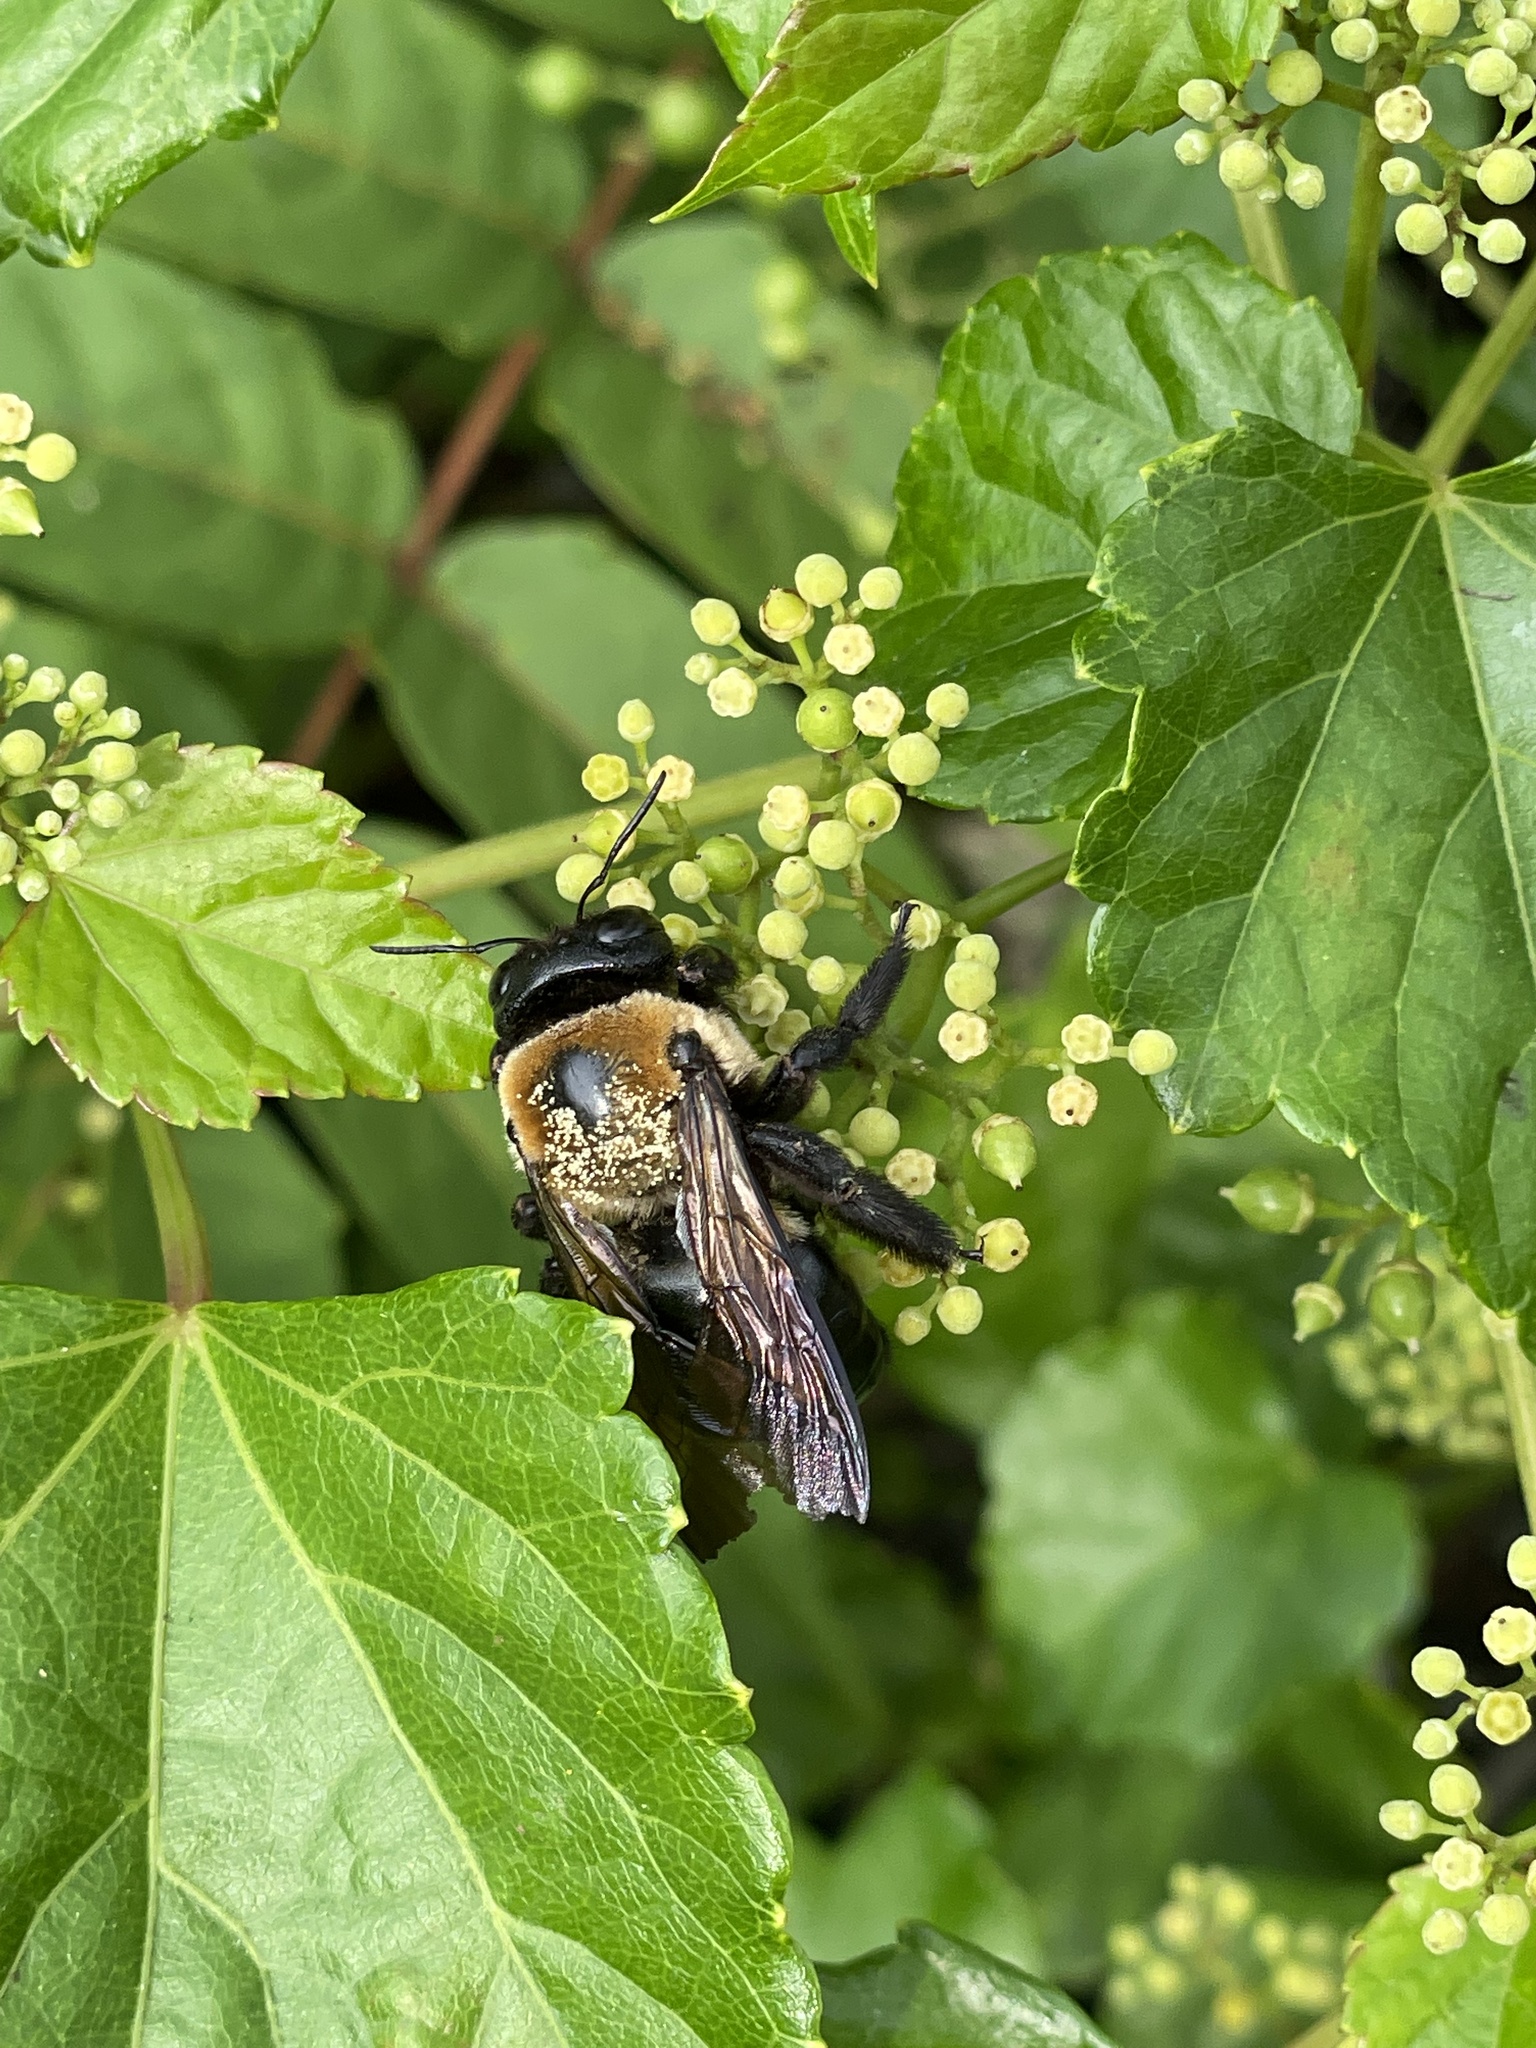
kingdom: Animalia
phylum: Arthropoda
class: Insecta
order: Hymenoptera
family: Apidae
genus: Xylocopa
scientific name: Xylocopa virginica
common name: Carpenter bee
